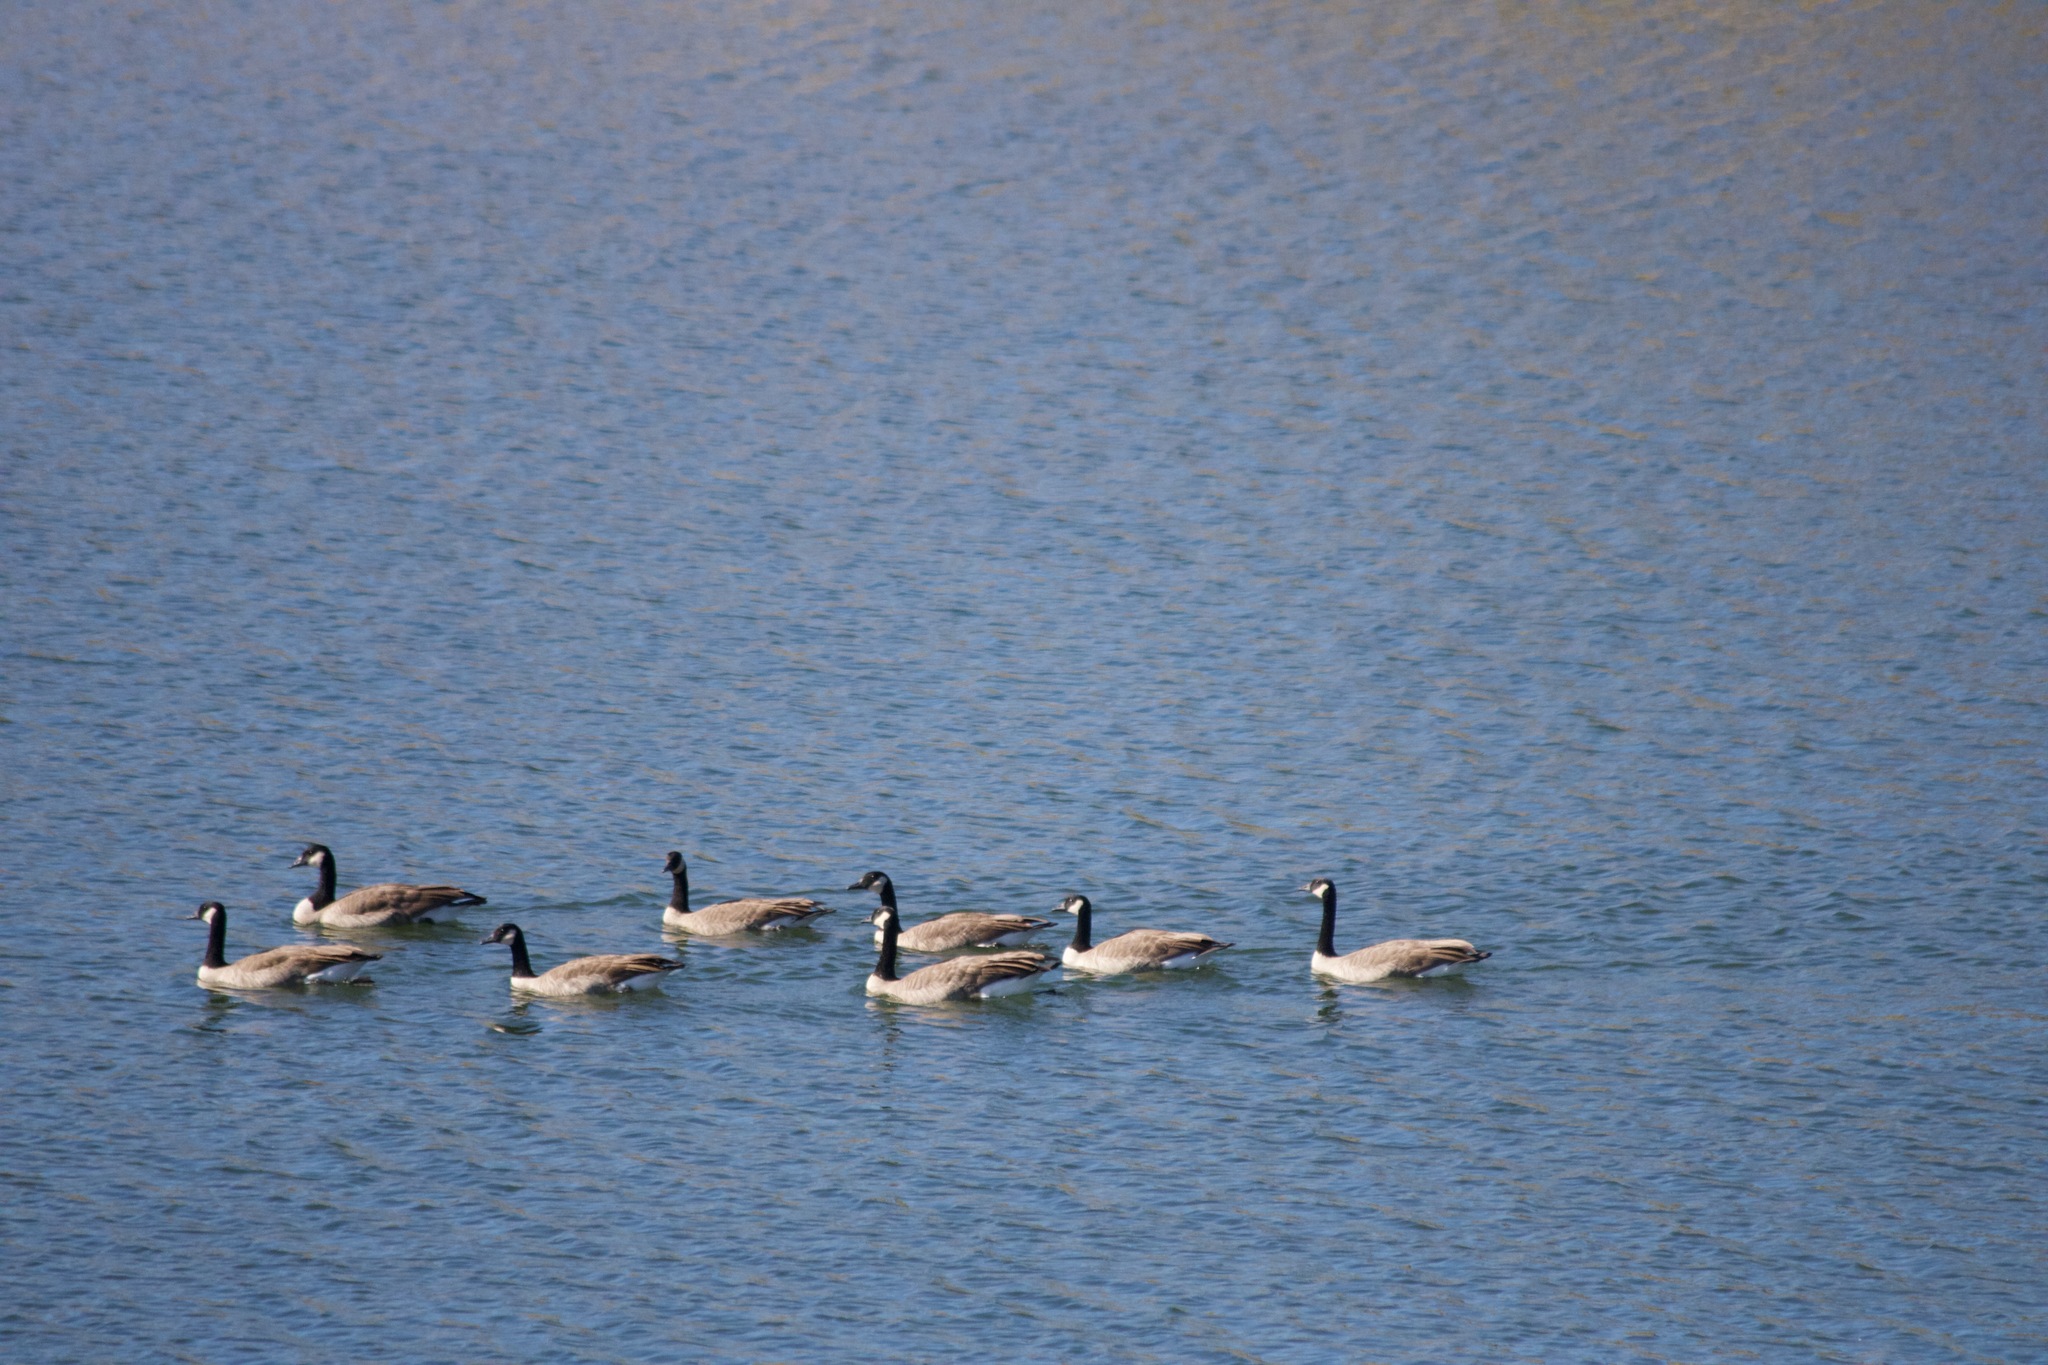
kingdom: Animalia
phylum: Chordata
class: Aves
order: Anseriformes
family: Anatidae
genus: Branta
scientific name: Branta canadensis
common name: Canada goose
